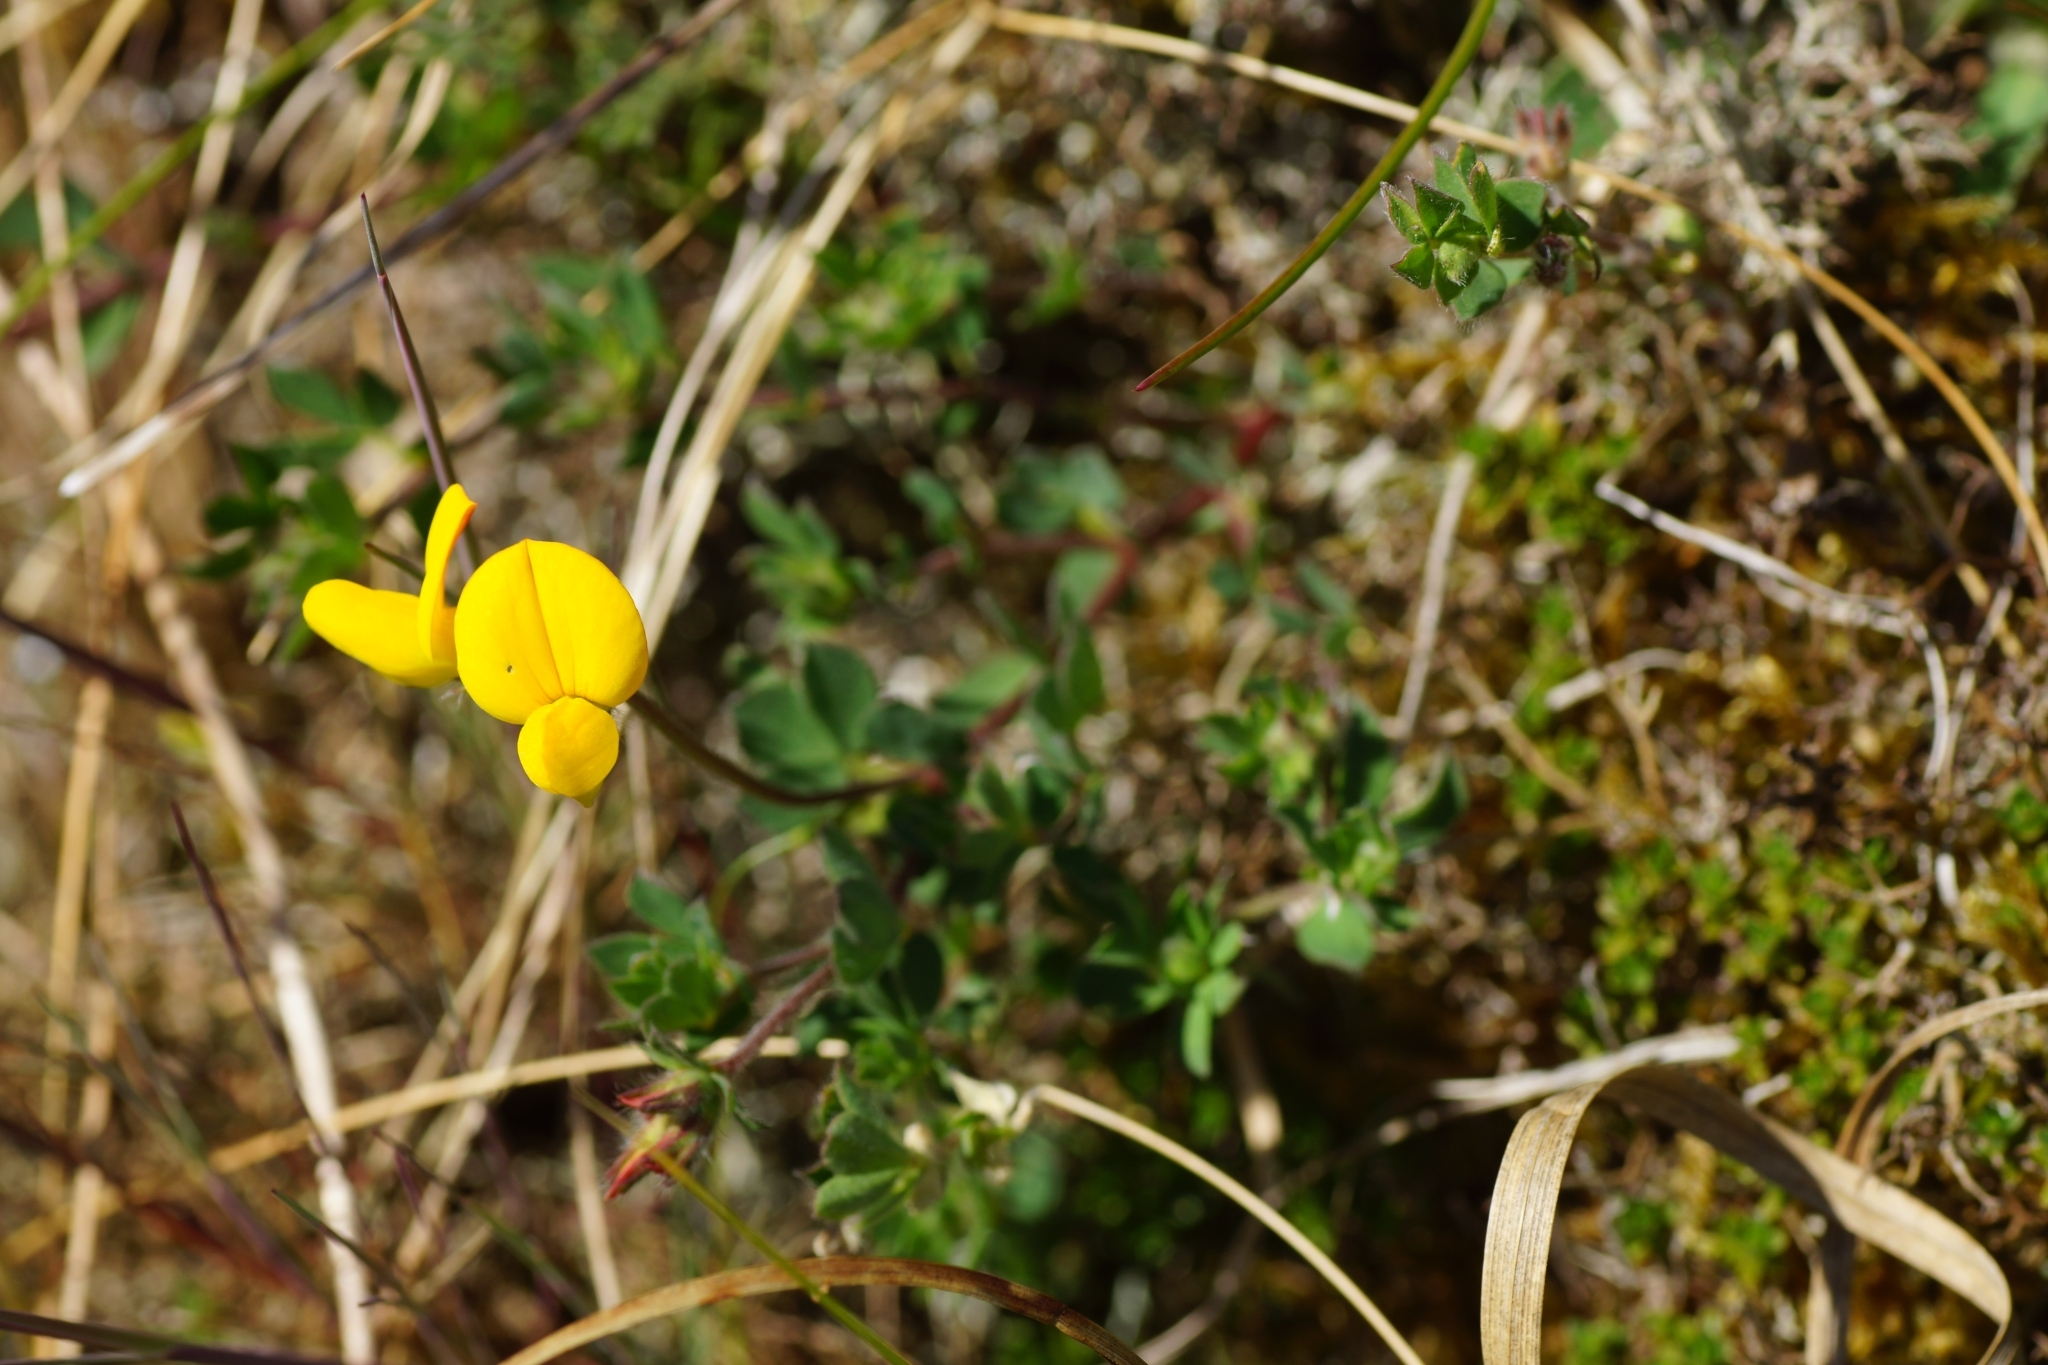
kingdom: Plantae
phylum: Tracheophyta
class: Magnoliopsida
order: Fabales
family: Fabaceae
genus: Lotus
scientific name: Lotus corniculatus
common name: Common bird's-foot-trefoil
